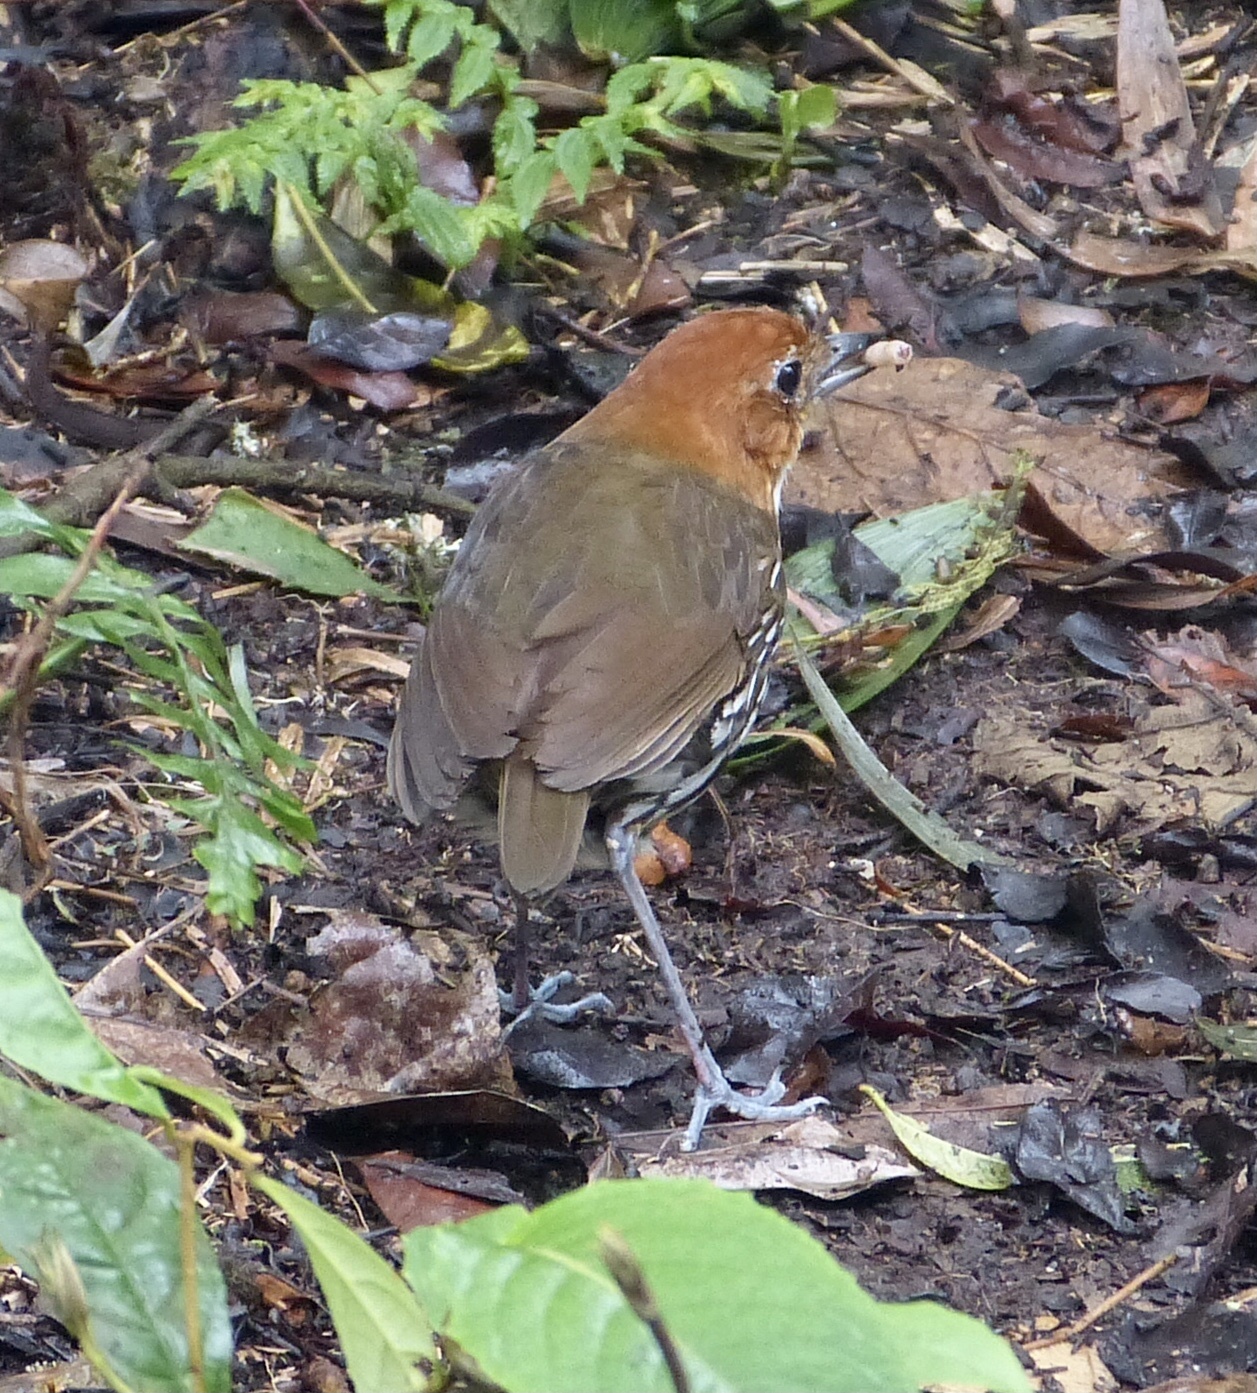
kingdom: Animalia
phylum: Chordata
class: Aves
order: Passeriformes
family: Grallariidae
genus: Grallaria
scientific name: Grallaria ruficapilla
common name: Chestnut-crowned antpitta
